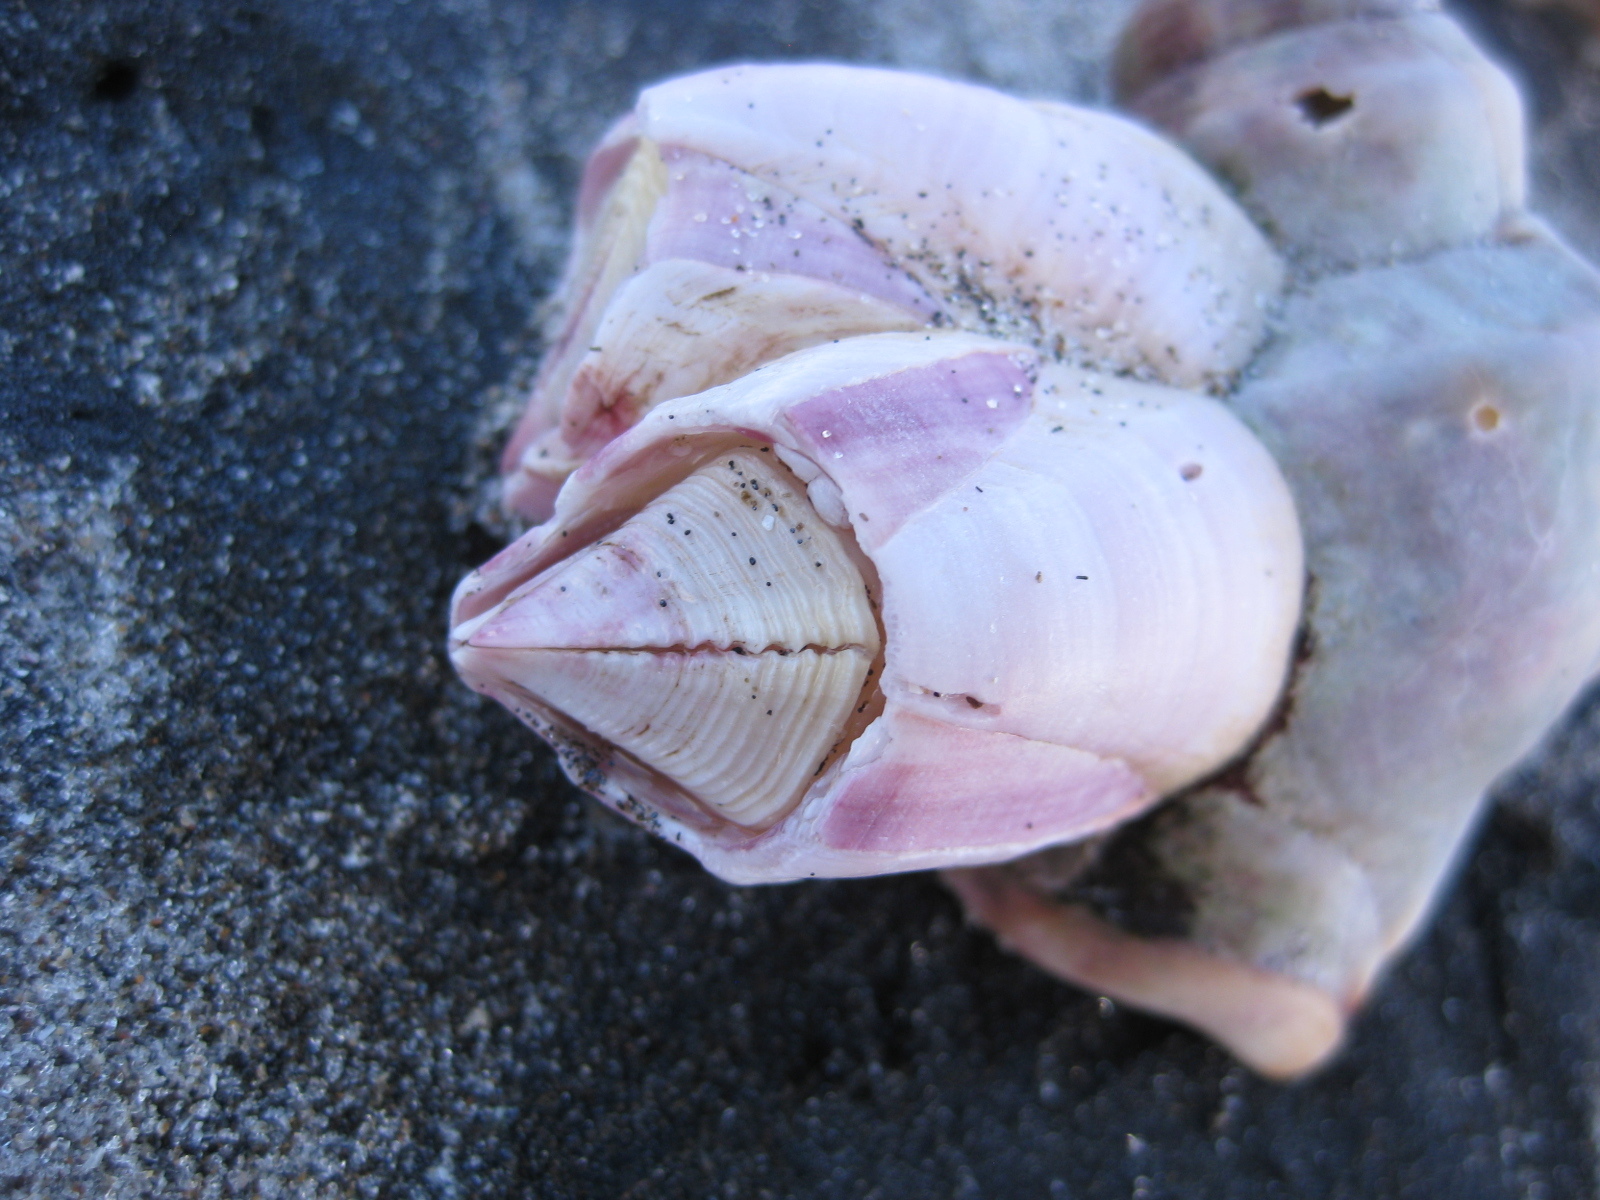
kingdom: Animalia
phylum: Arthropoda
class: Maxillopoda
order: Sessilia
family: Balanidae
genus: Notomegabalanus
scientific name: Notomegabalanus decorus
